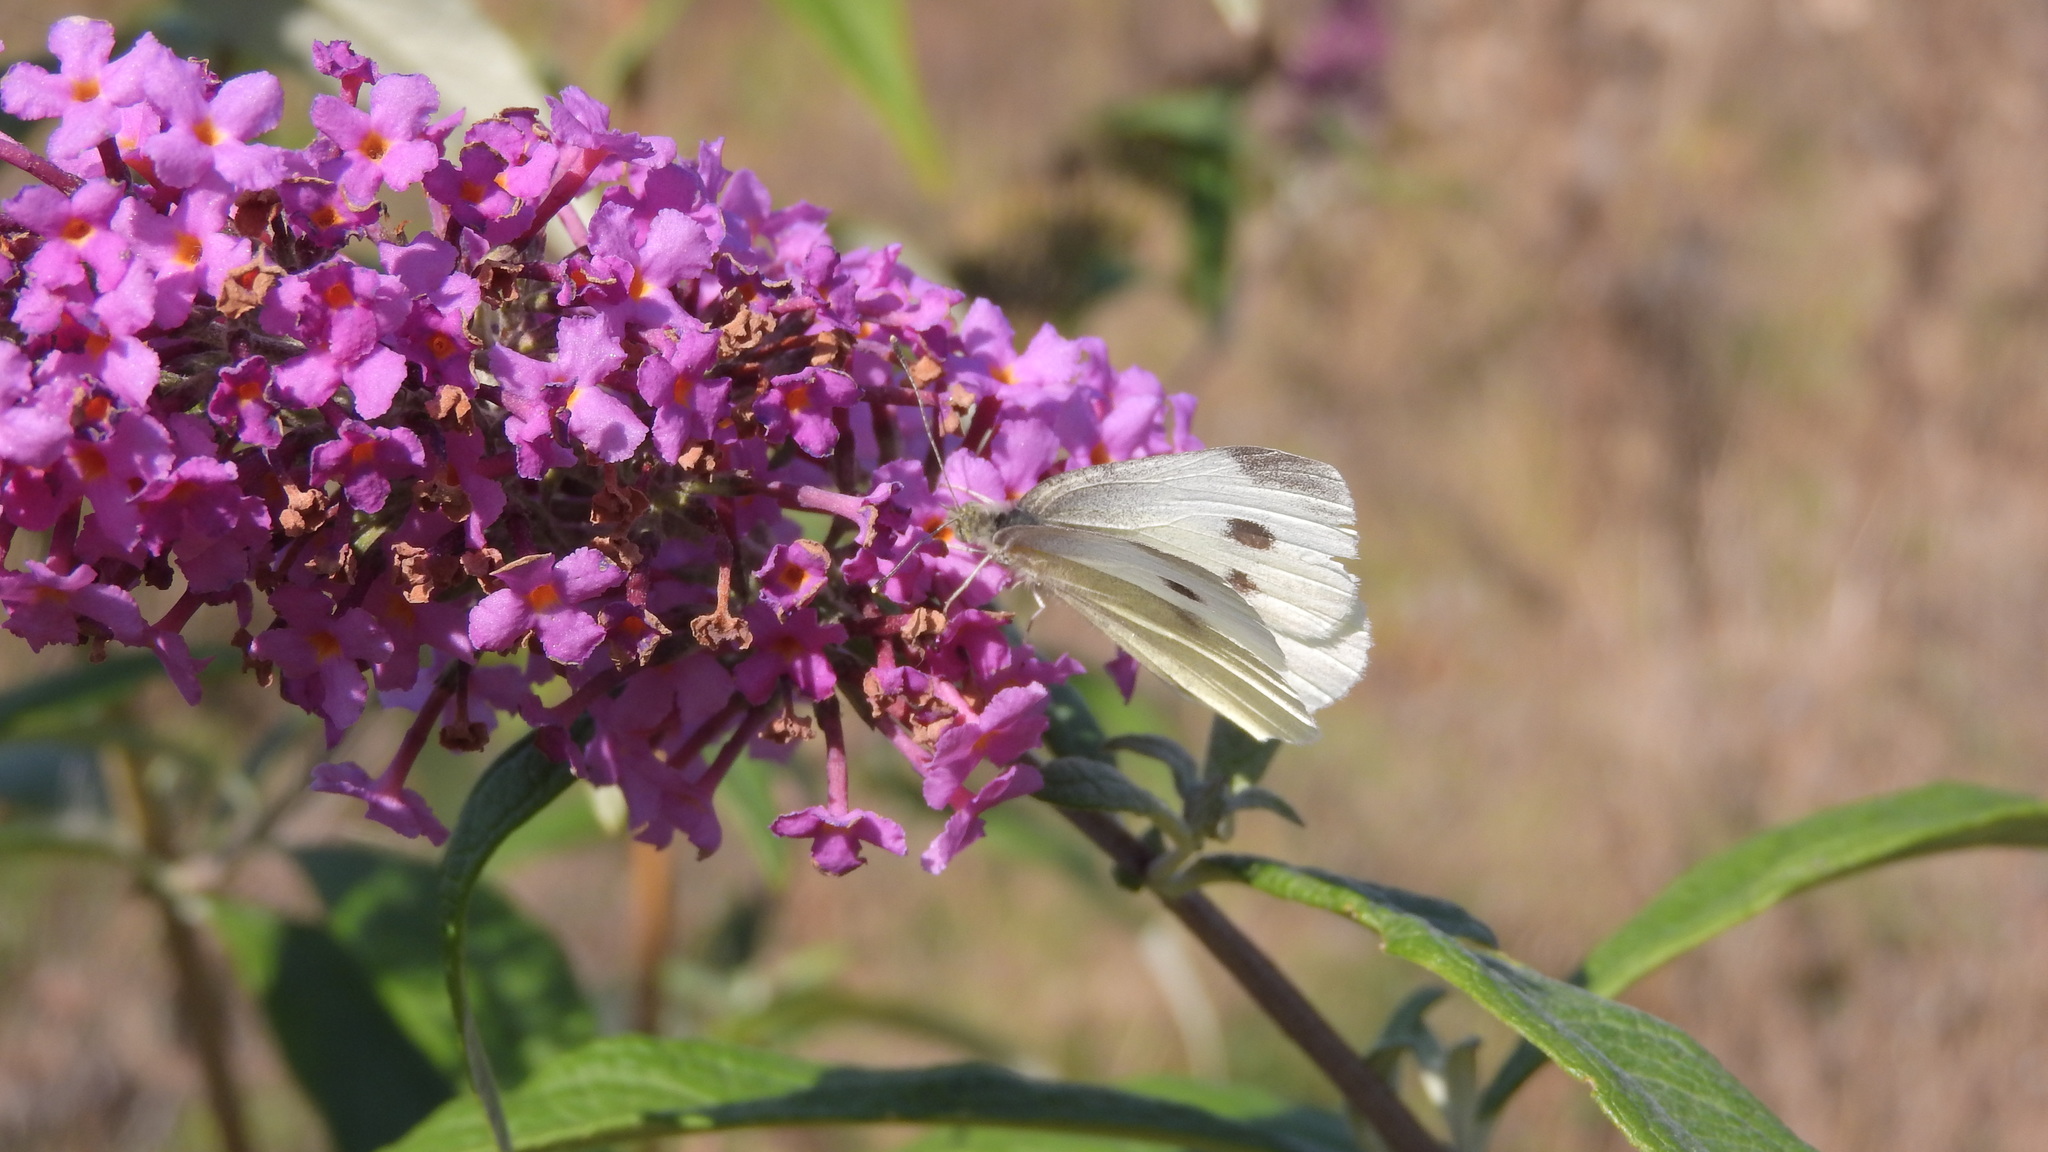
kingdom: Animalia
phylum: Arthropoda
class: Insecta
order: Lepidoptera
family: Pieridae
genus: Pieris
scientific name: Pieris rapae
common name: Small white
